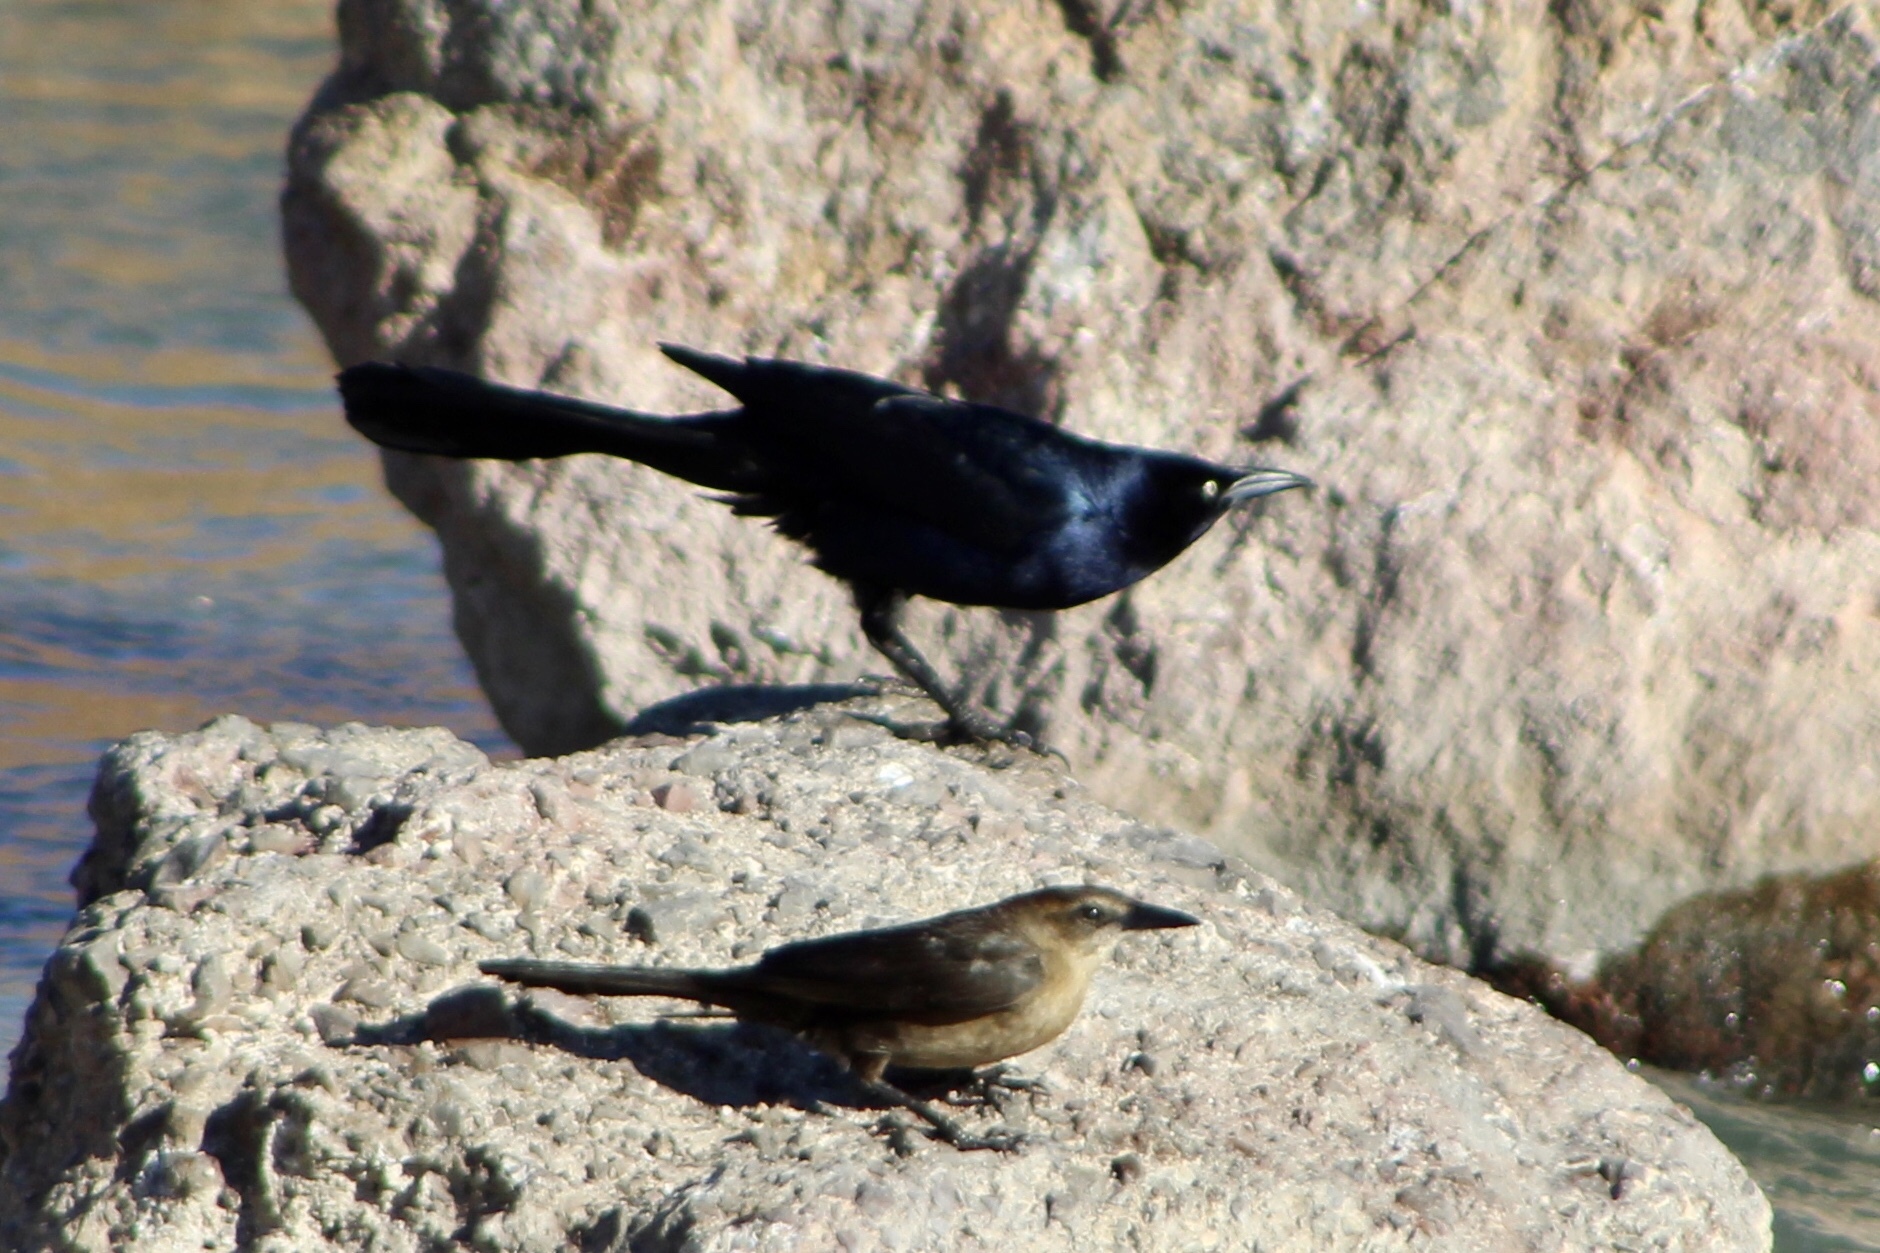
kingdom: Animalia
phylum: Chordata
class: Aves
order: Passeriformes
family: Icteridae
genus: Quiscalus
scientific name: Quiscalus mexicanus
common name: Great-tailed grackle
